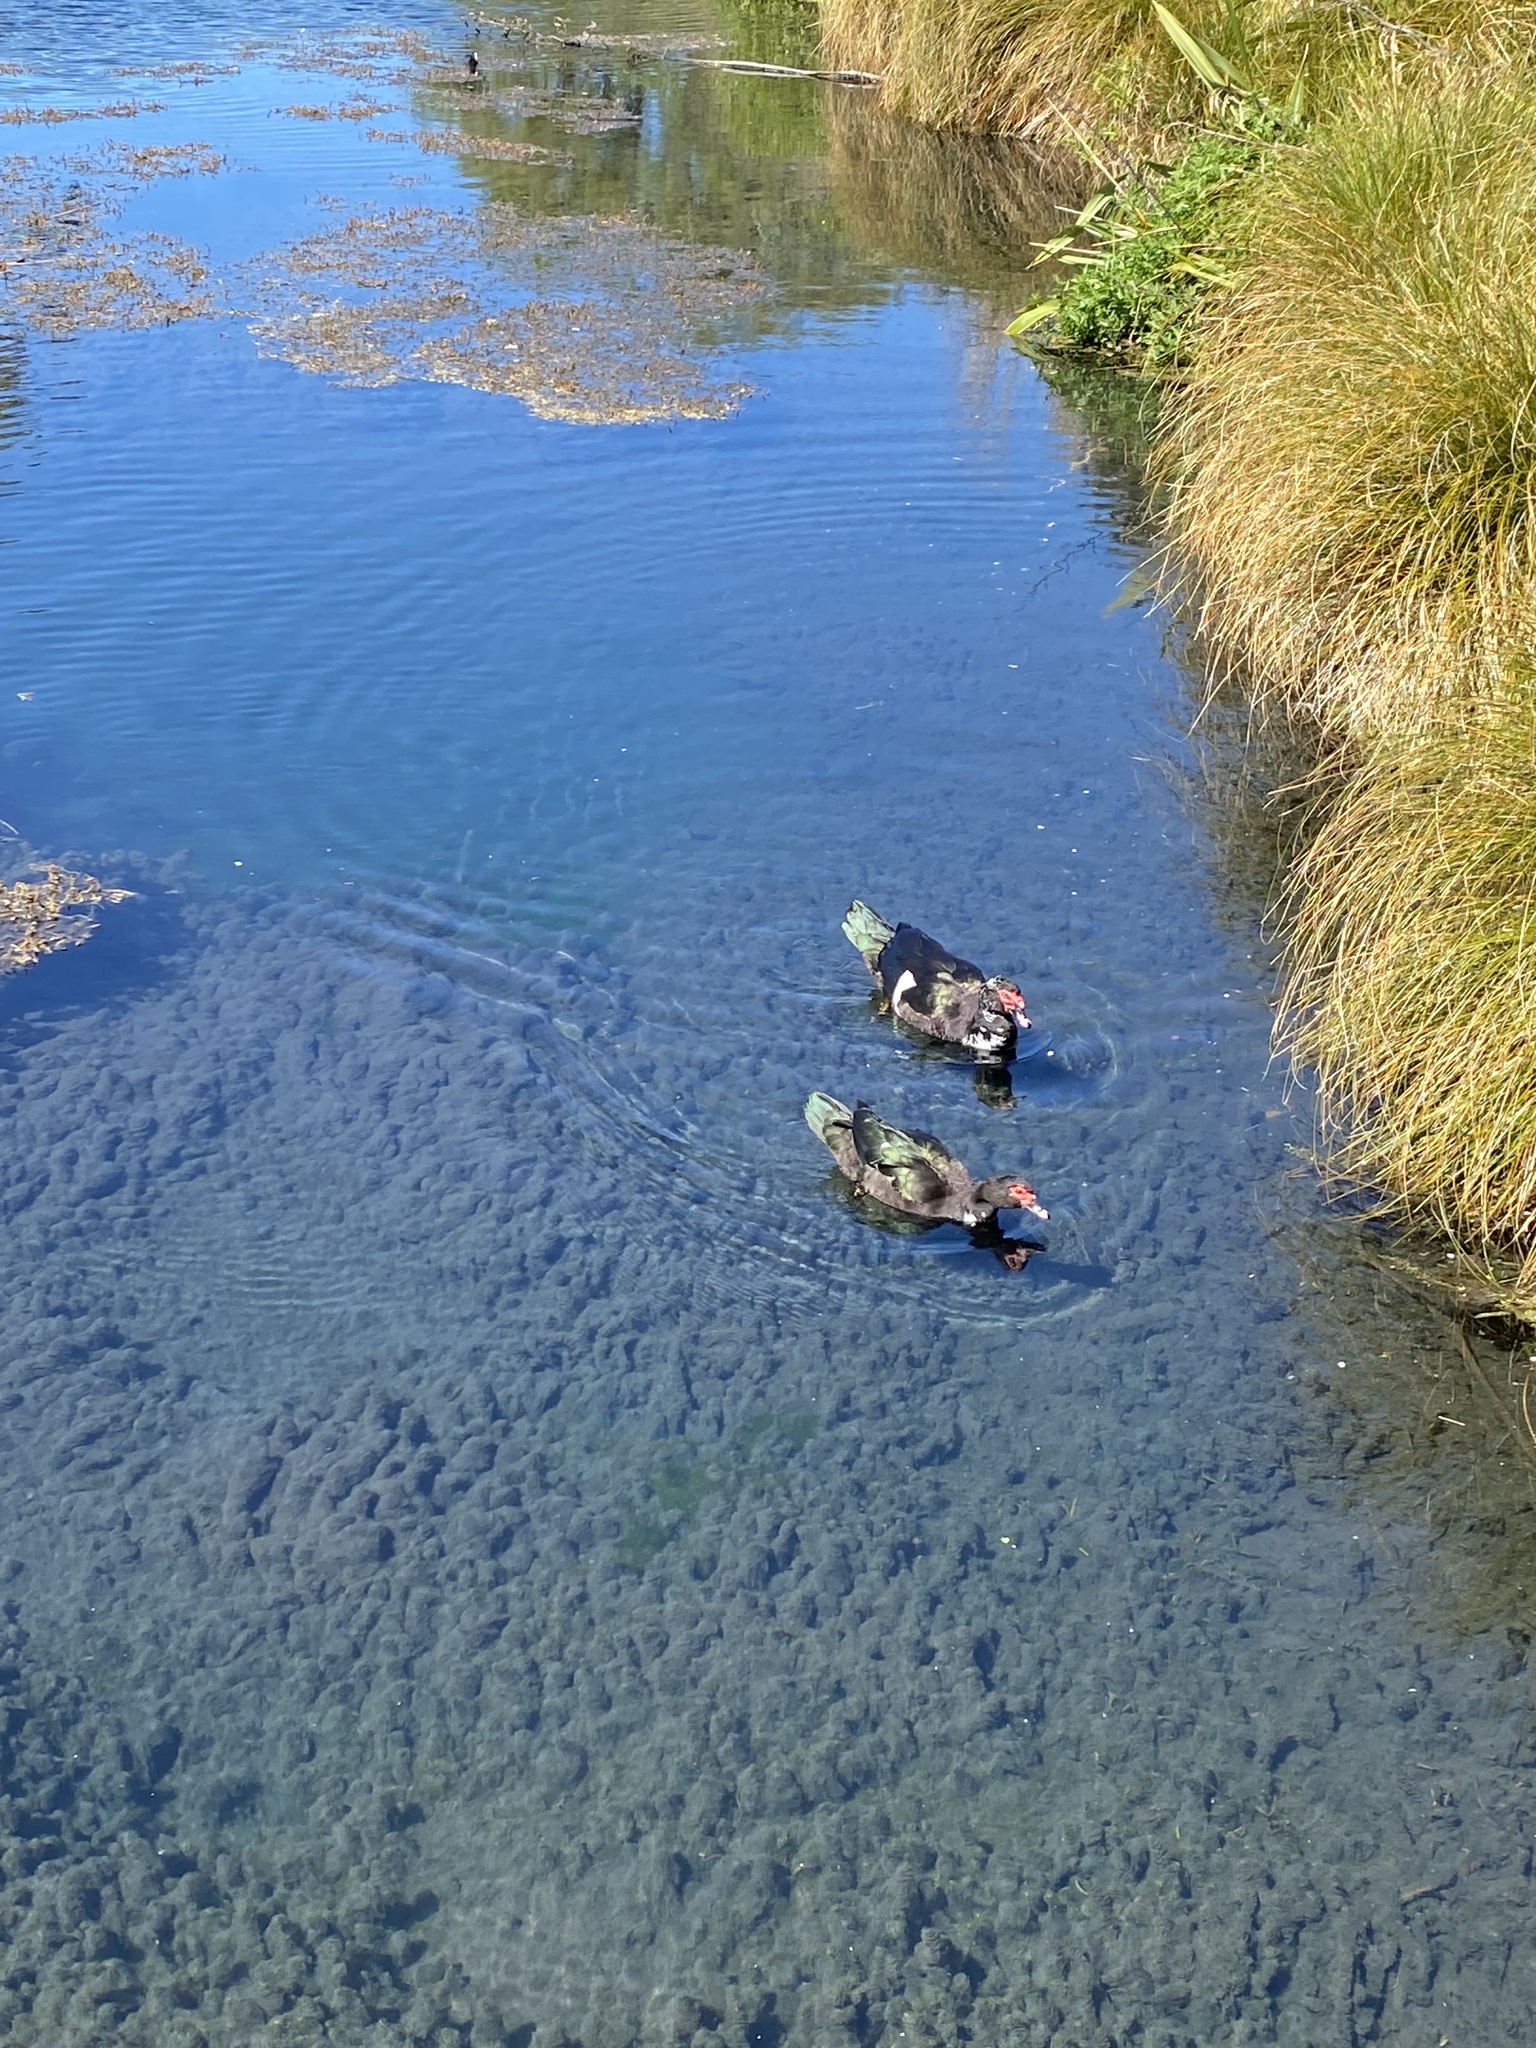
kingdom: Animalia
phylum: Chordata
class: Aves
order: Anseriformes
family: Anatidae
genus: Cairina
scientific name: Cairina moschata
